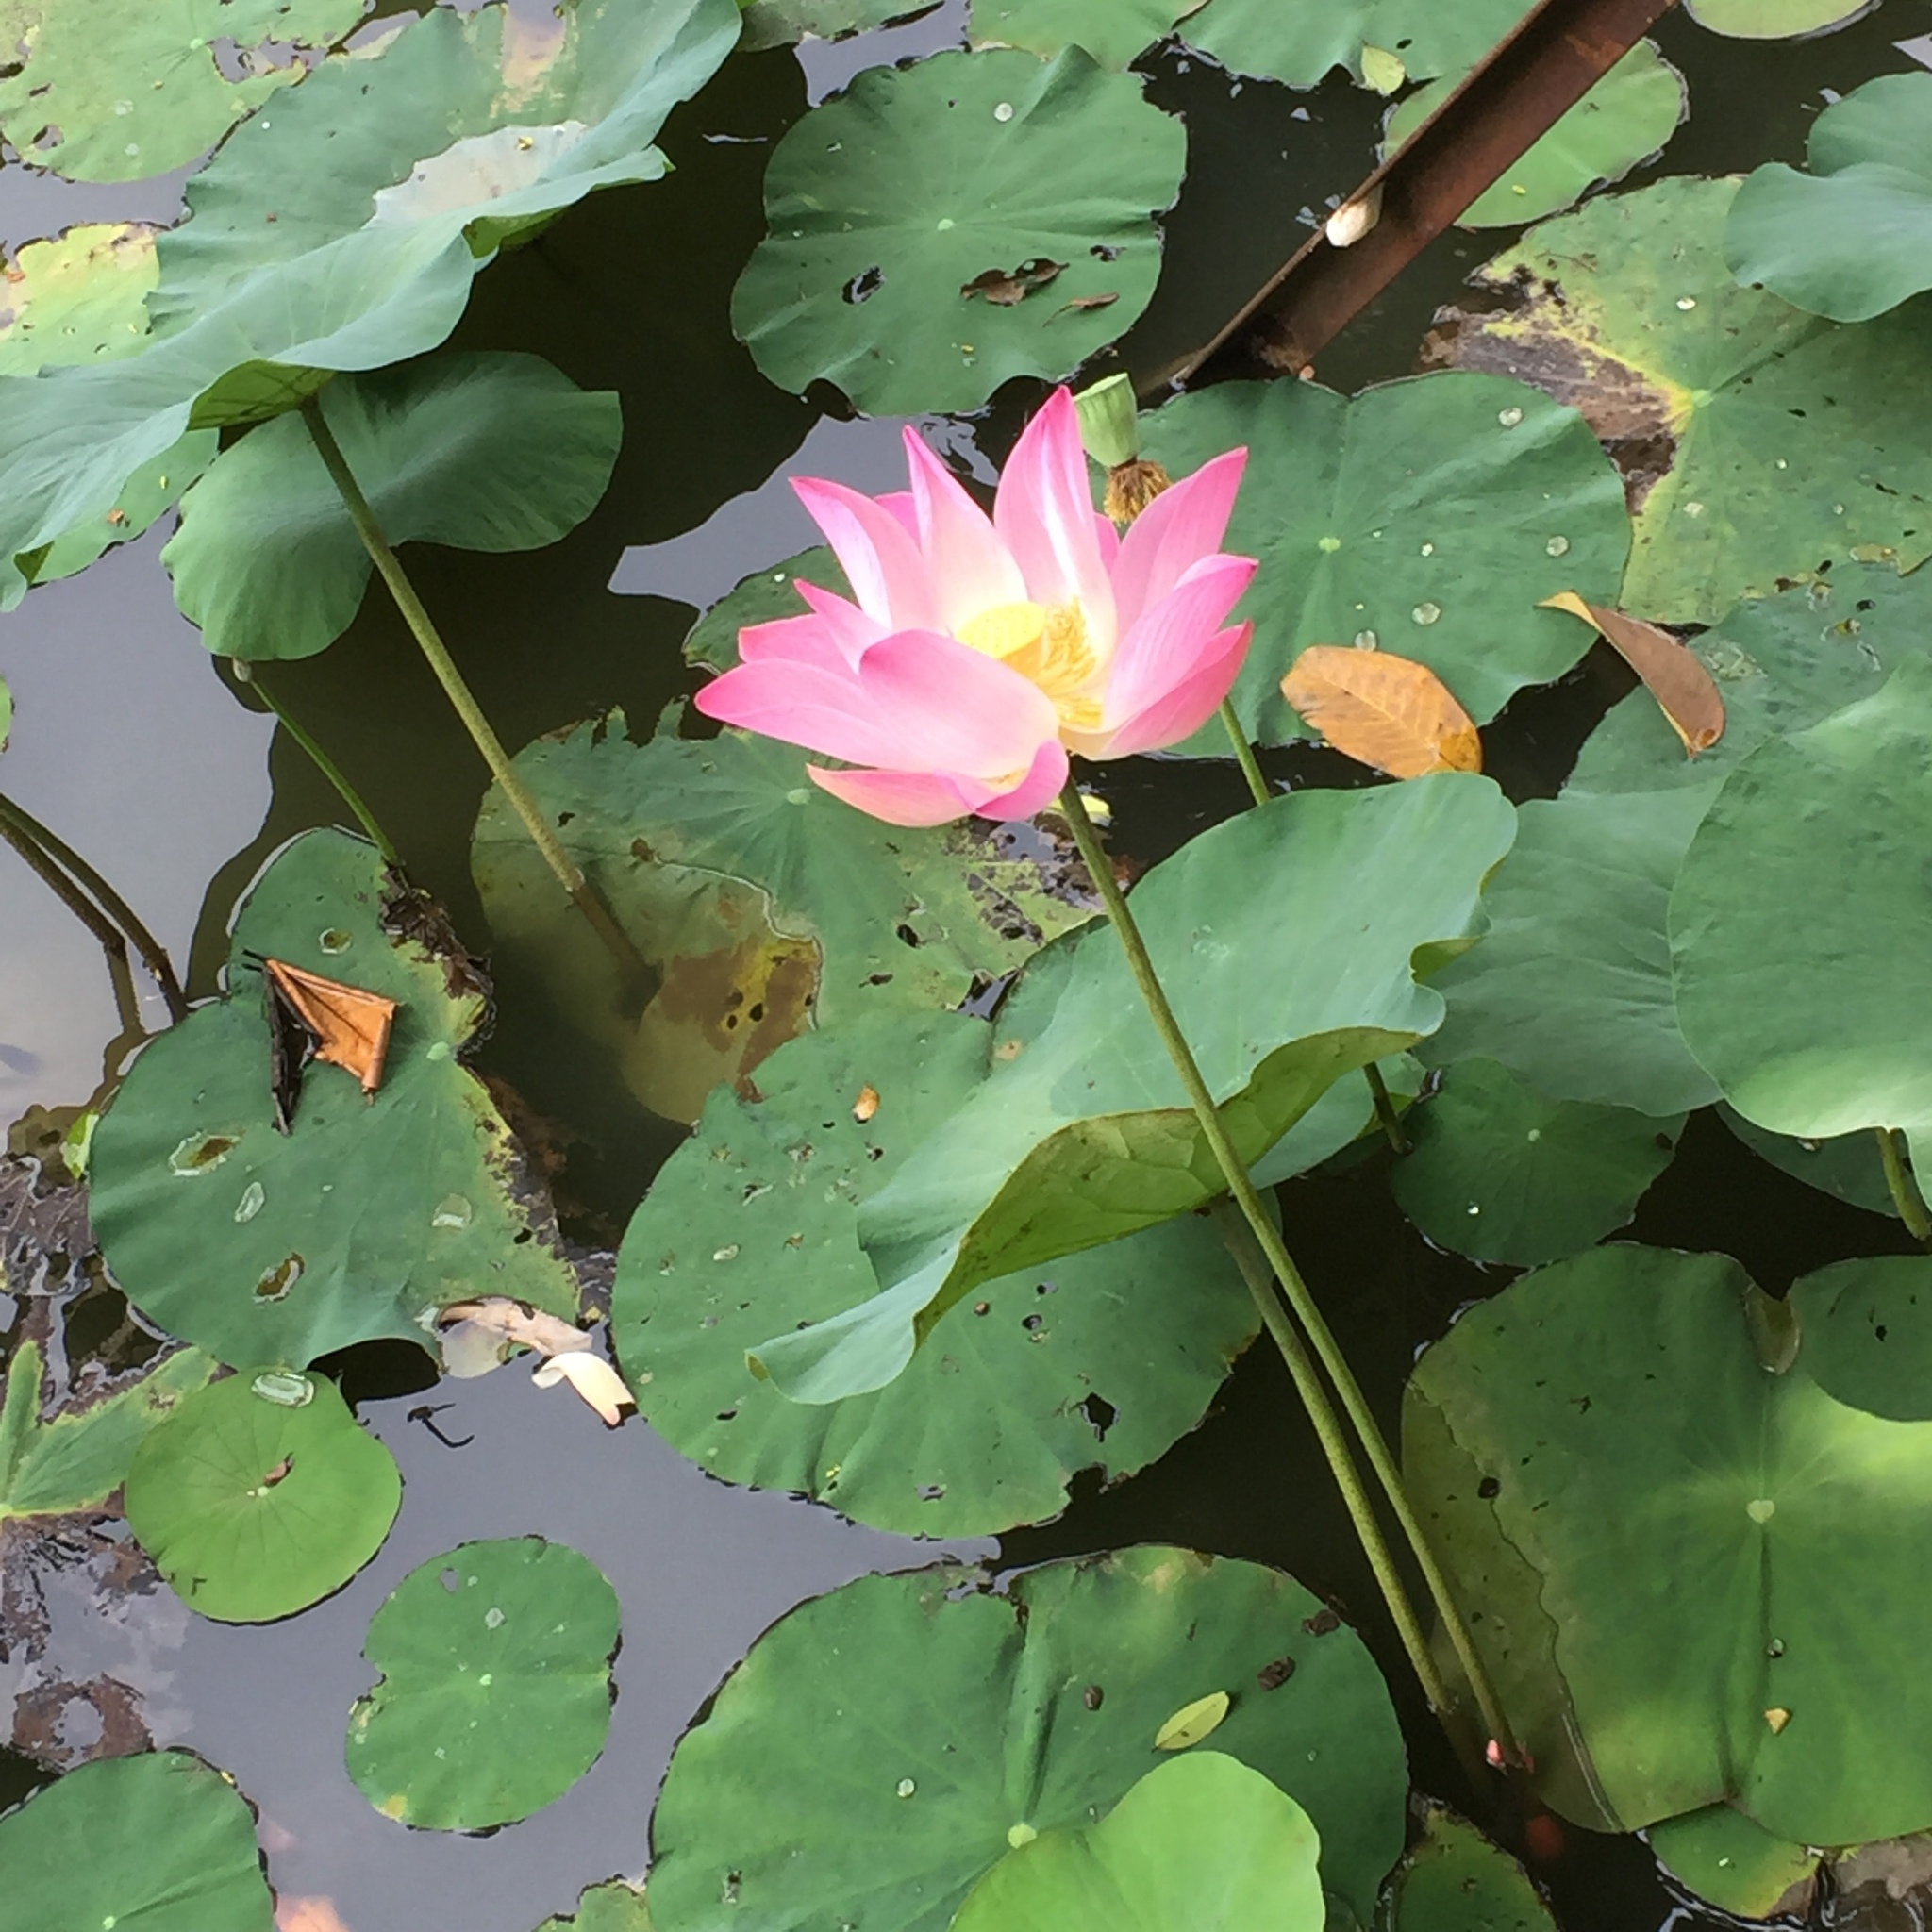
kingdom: Plantae
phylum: Tracheophyta
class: Magnoliopsida
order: Proteales
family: Nelumbonaceae
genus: Nelumbo
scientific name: Nelumbo nucifera
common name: Sacred lotus
